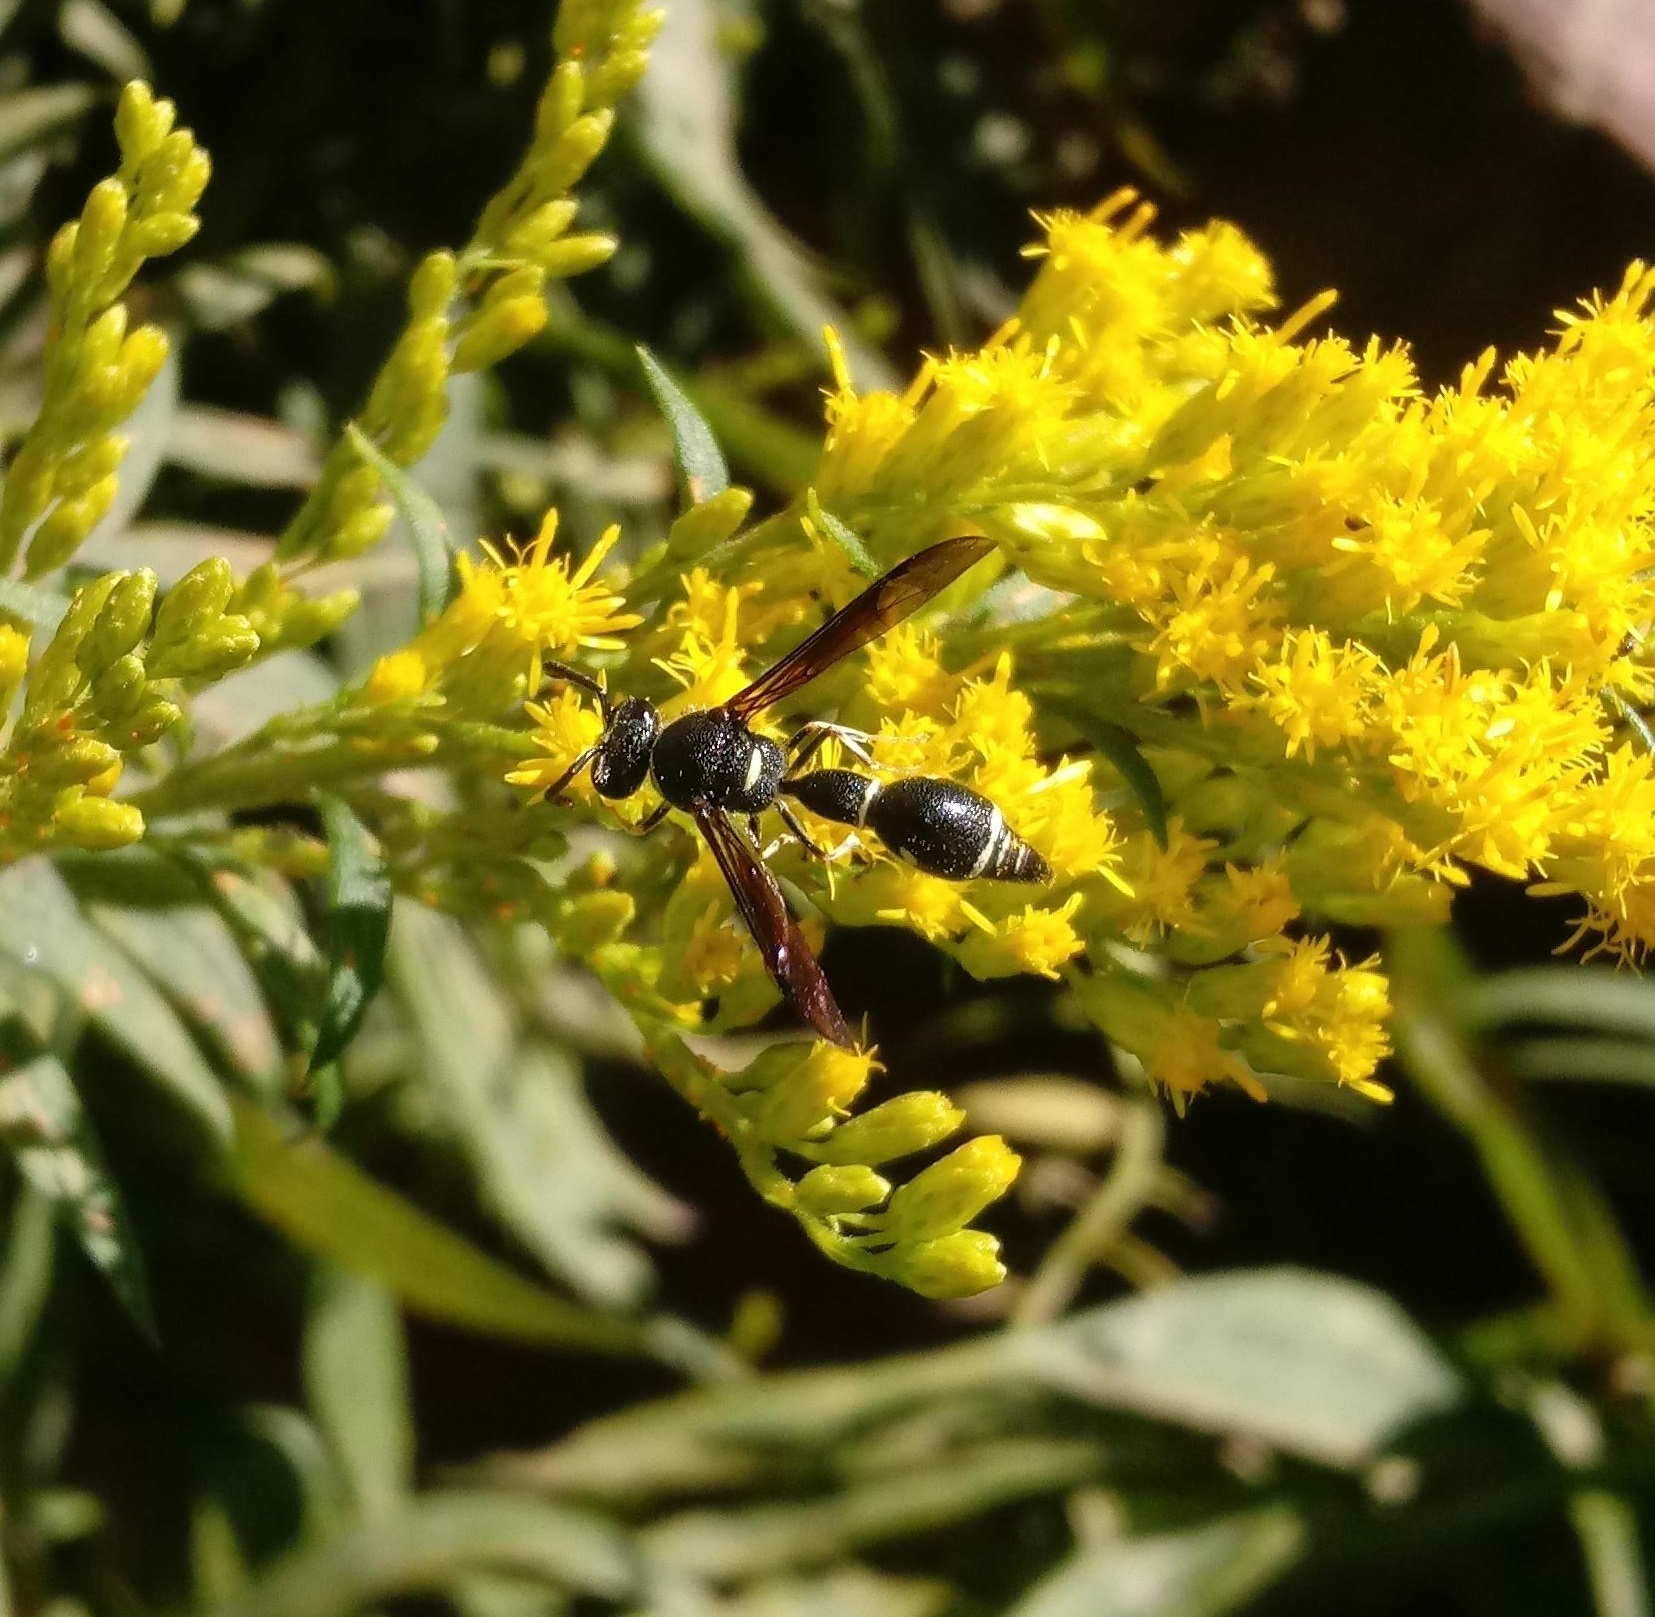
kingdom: Animalia
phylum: Arthropoda
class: Insecta
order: Hymenoptera
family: Vespidae
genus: Eumenes
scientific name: Eumenes fraternus
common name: Fraternal potter wasp
